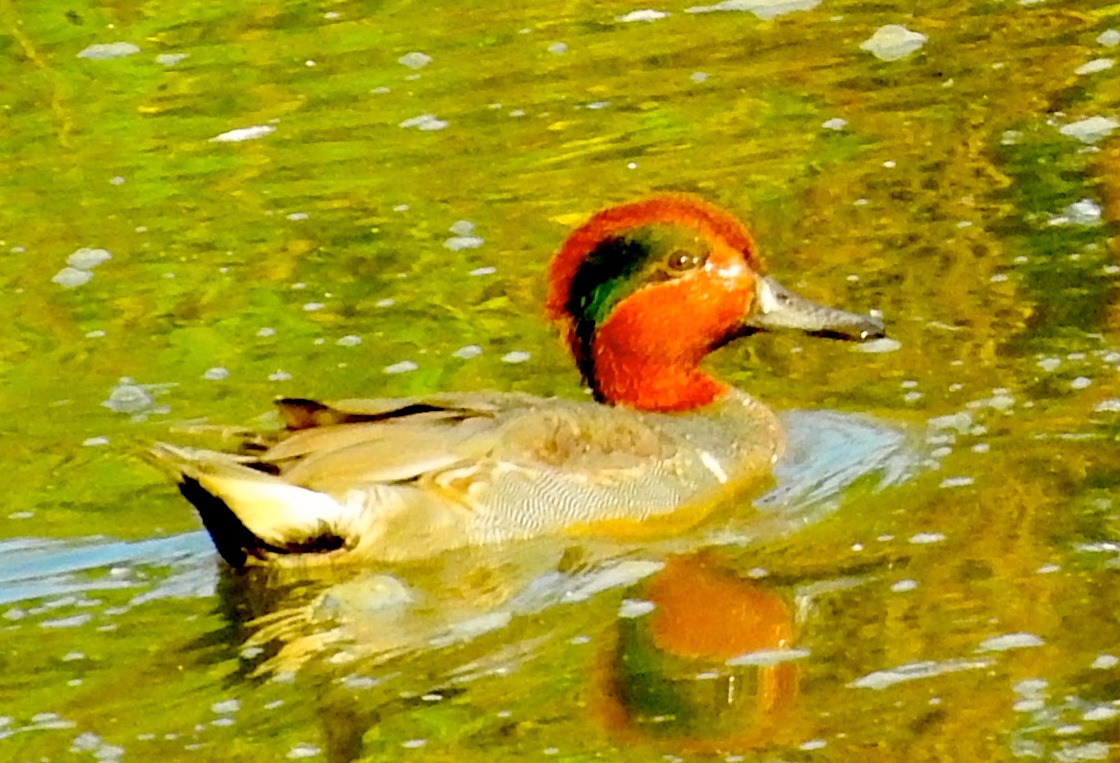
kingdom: Animalia
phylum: Chordata
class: Aves
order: Anseriformes
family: Anatidae
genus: Anas
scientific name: Anas crecca
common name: Eurasian teal
